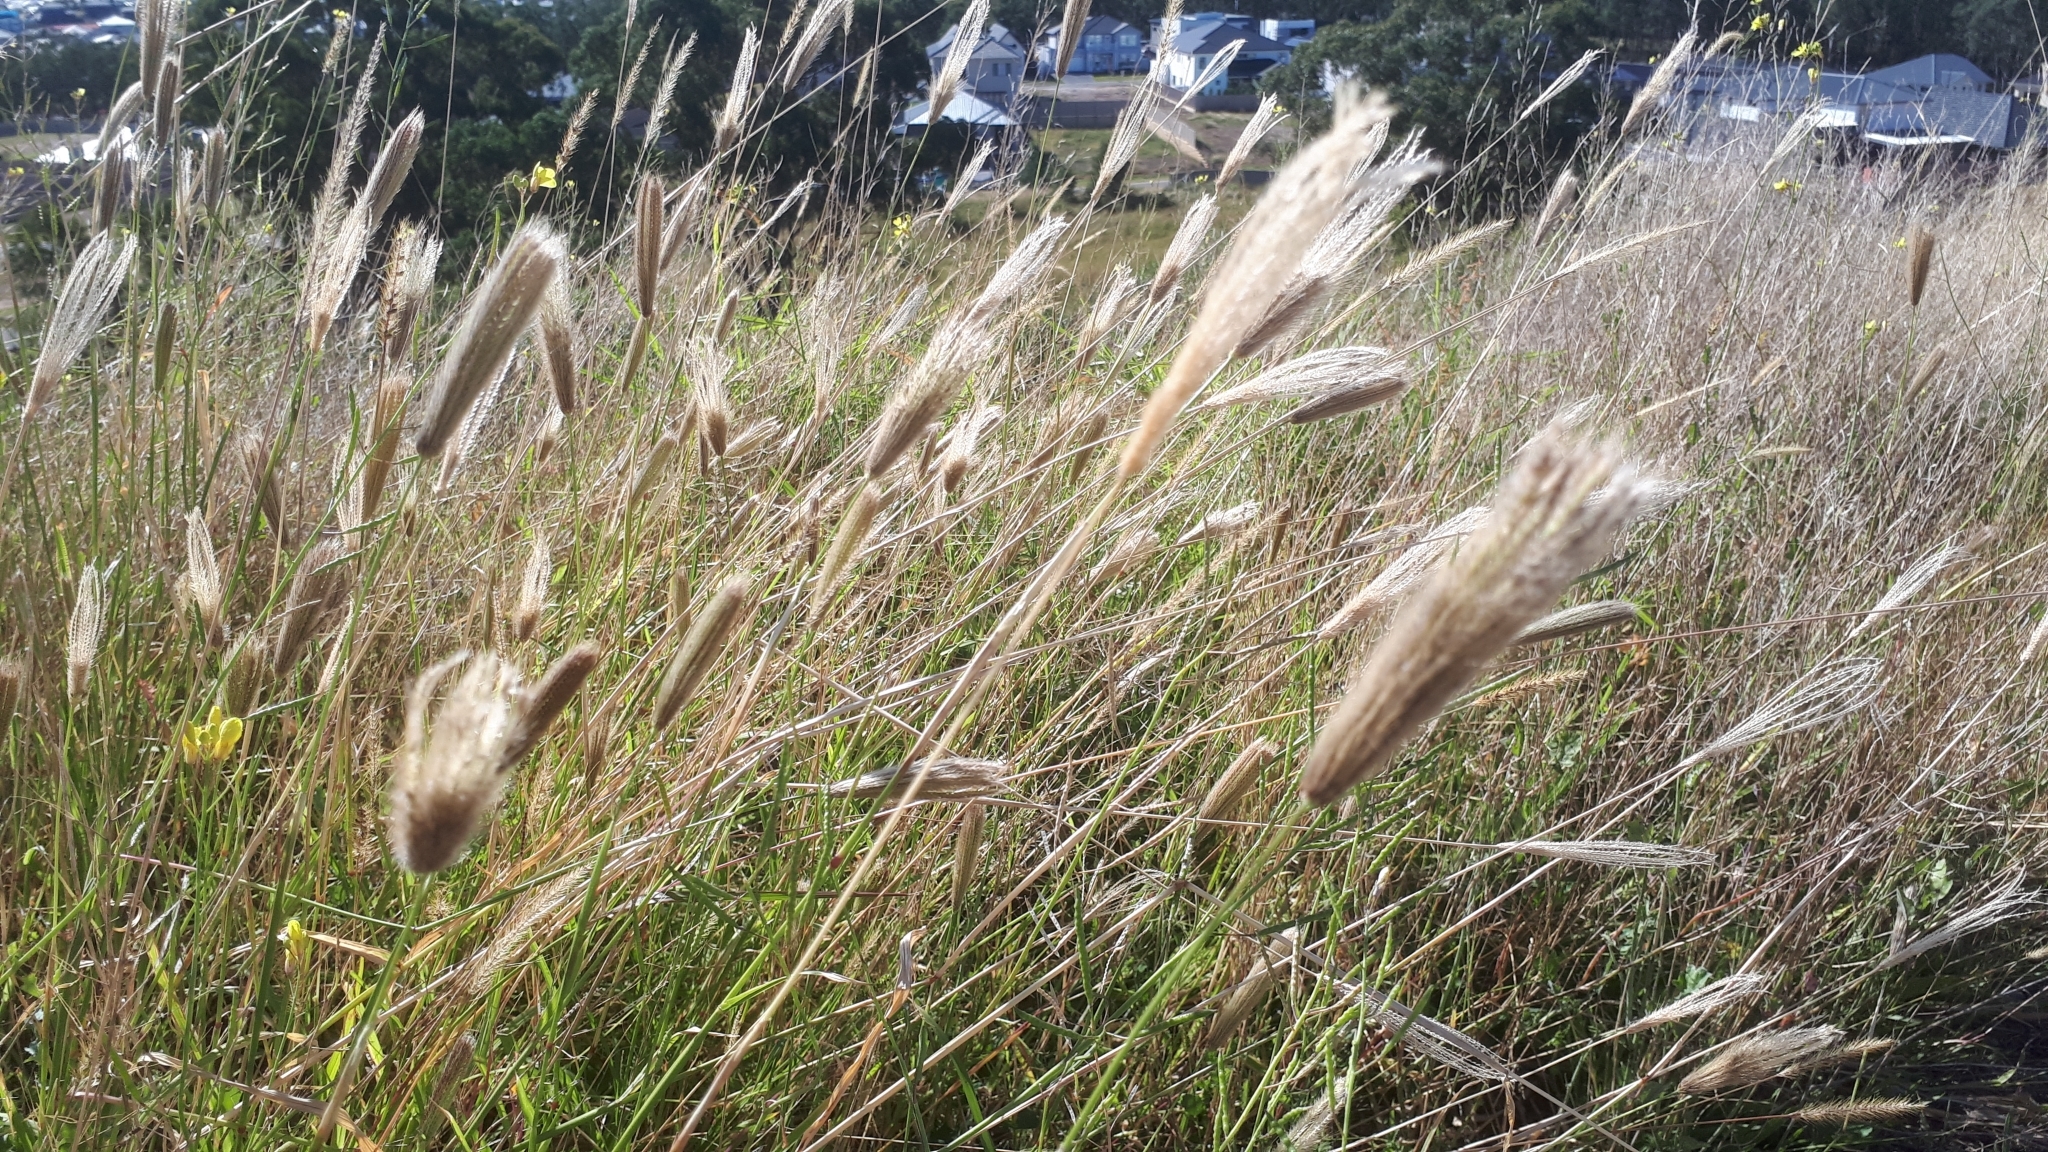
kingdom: Plantae
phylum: Tracheophyta
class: Liliopsida
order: Poales
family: Poaceae
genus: Chloris
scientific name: Chloris virgata
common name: Feathery rhodes-grass
